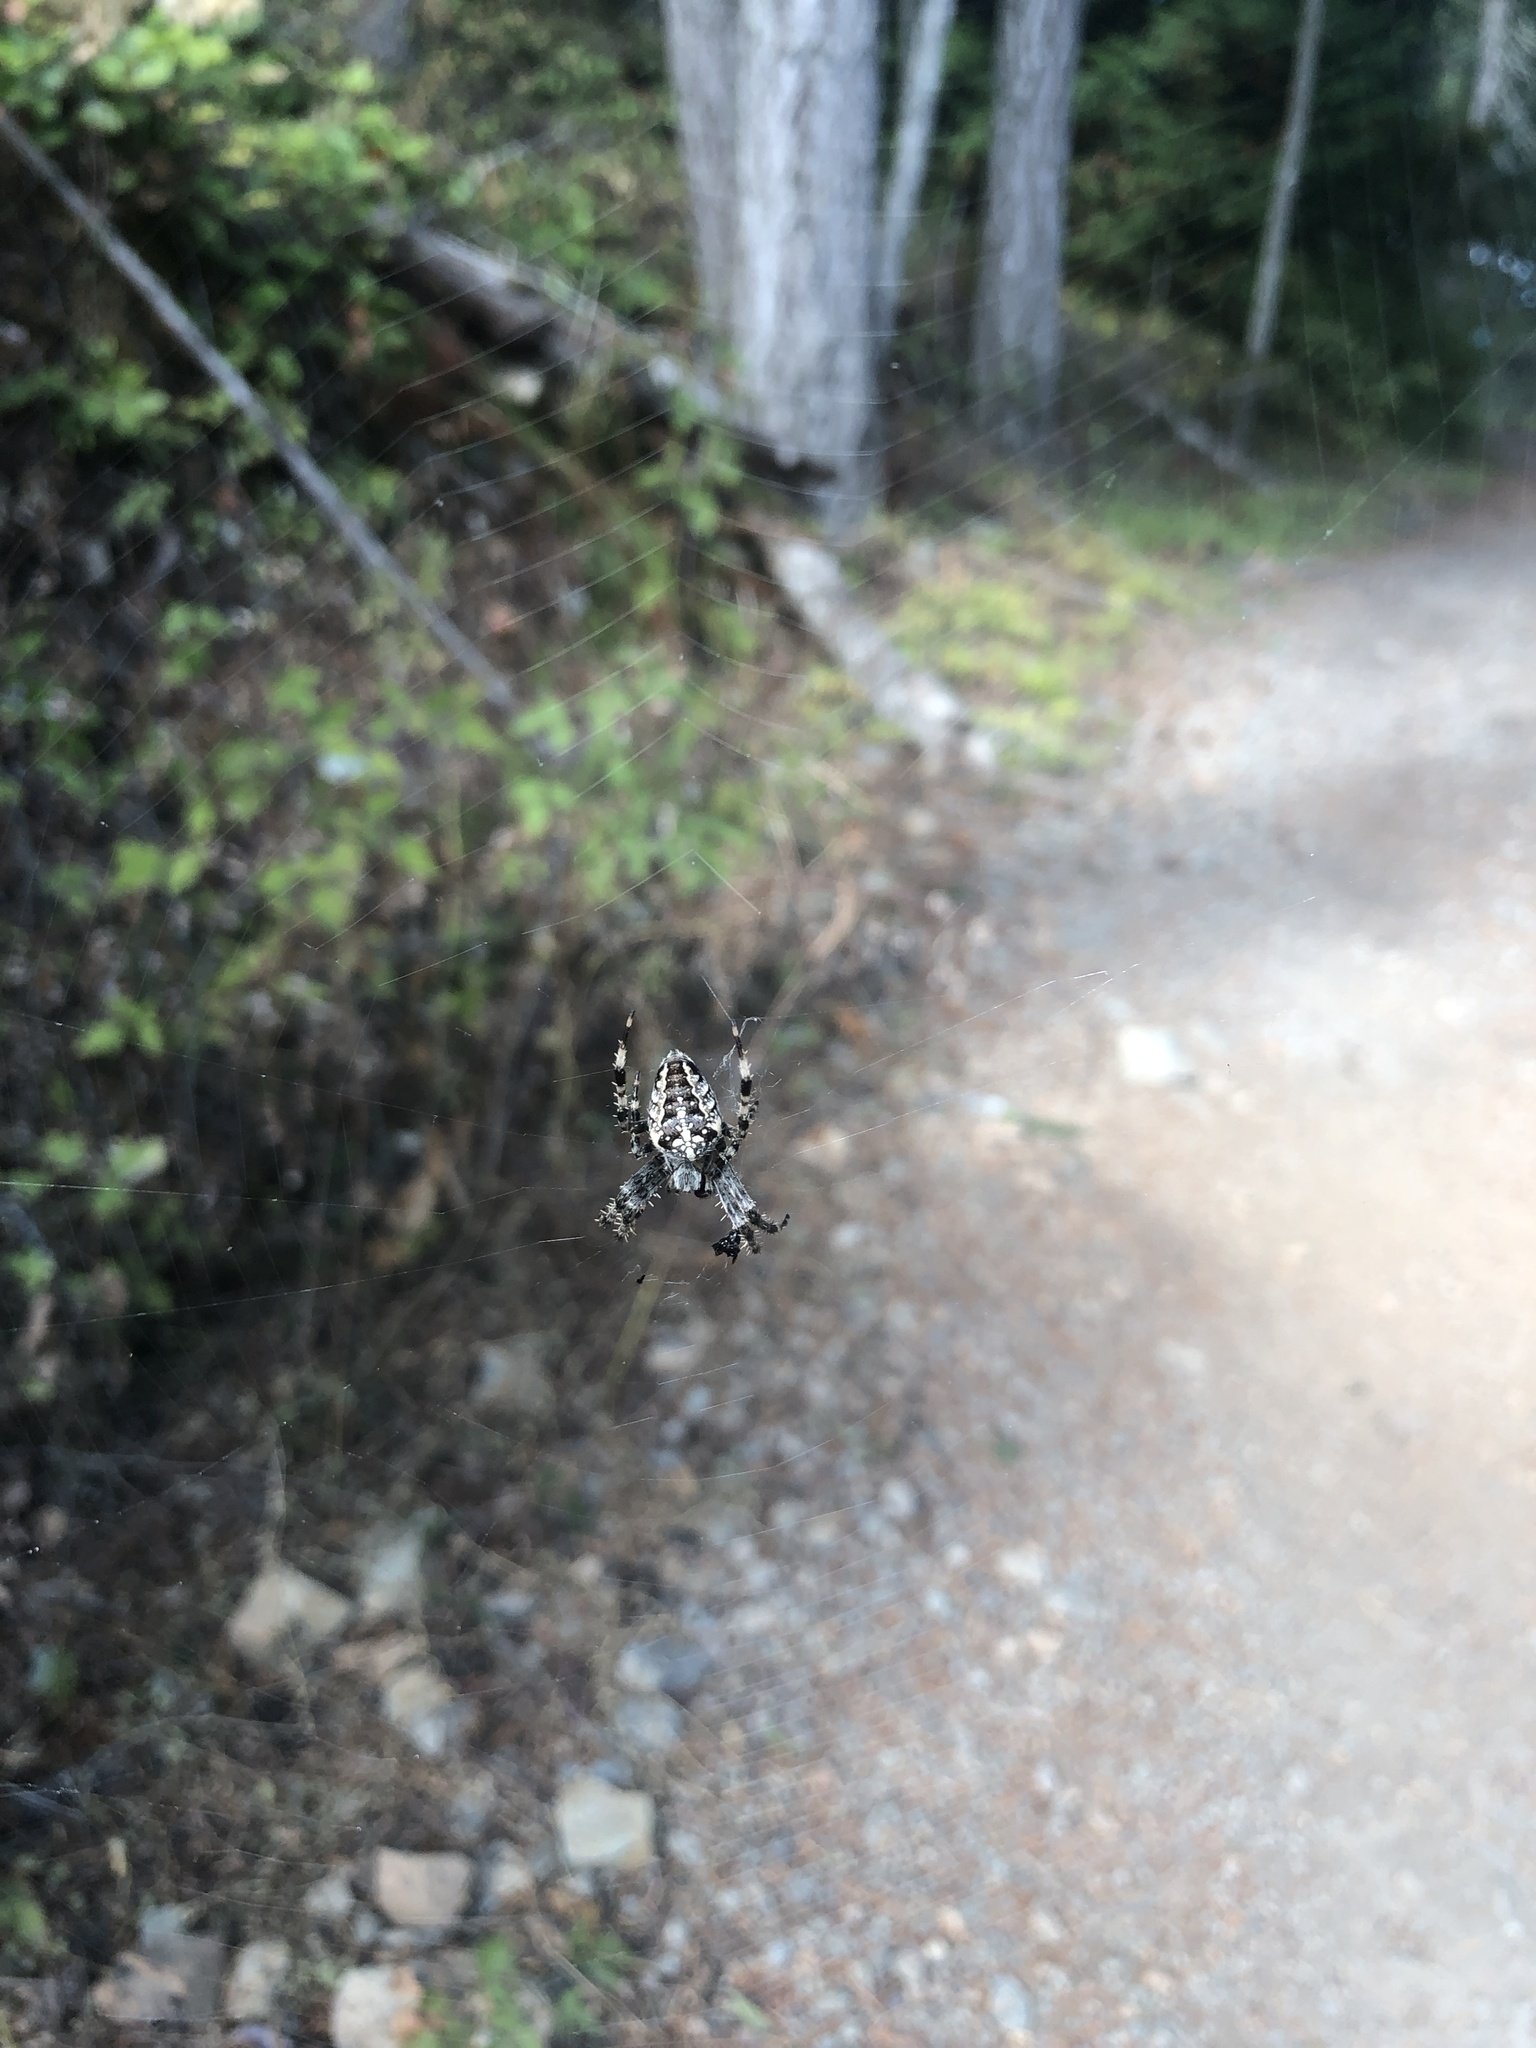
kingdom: Animalia
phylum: Arthropoda
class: Arachnida
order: Araneae
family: Araneidae
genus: Araneus
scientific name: Araneus diadematus
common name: Cross orbweaver
